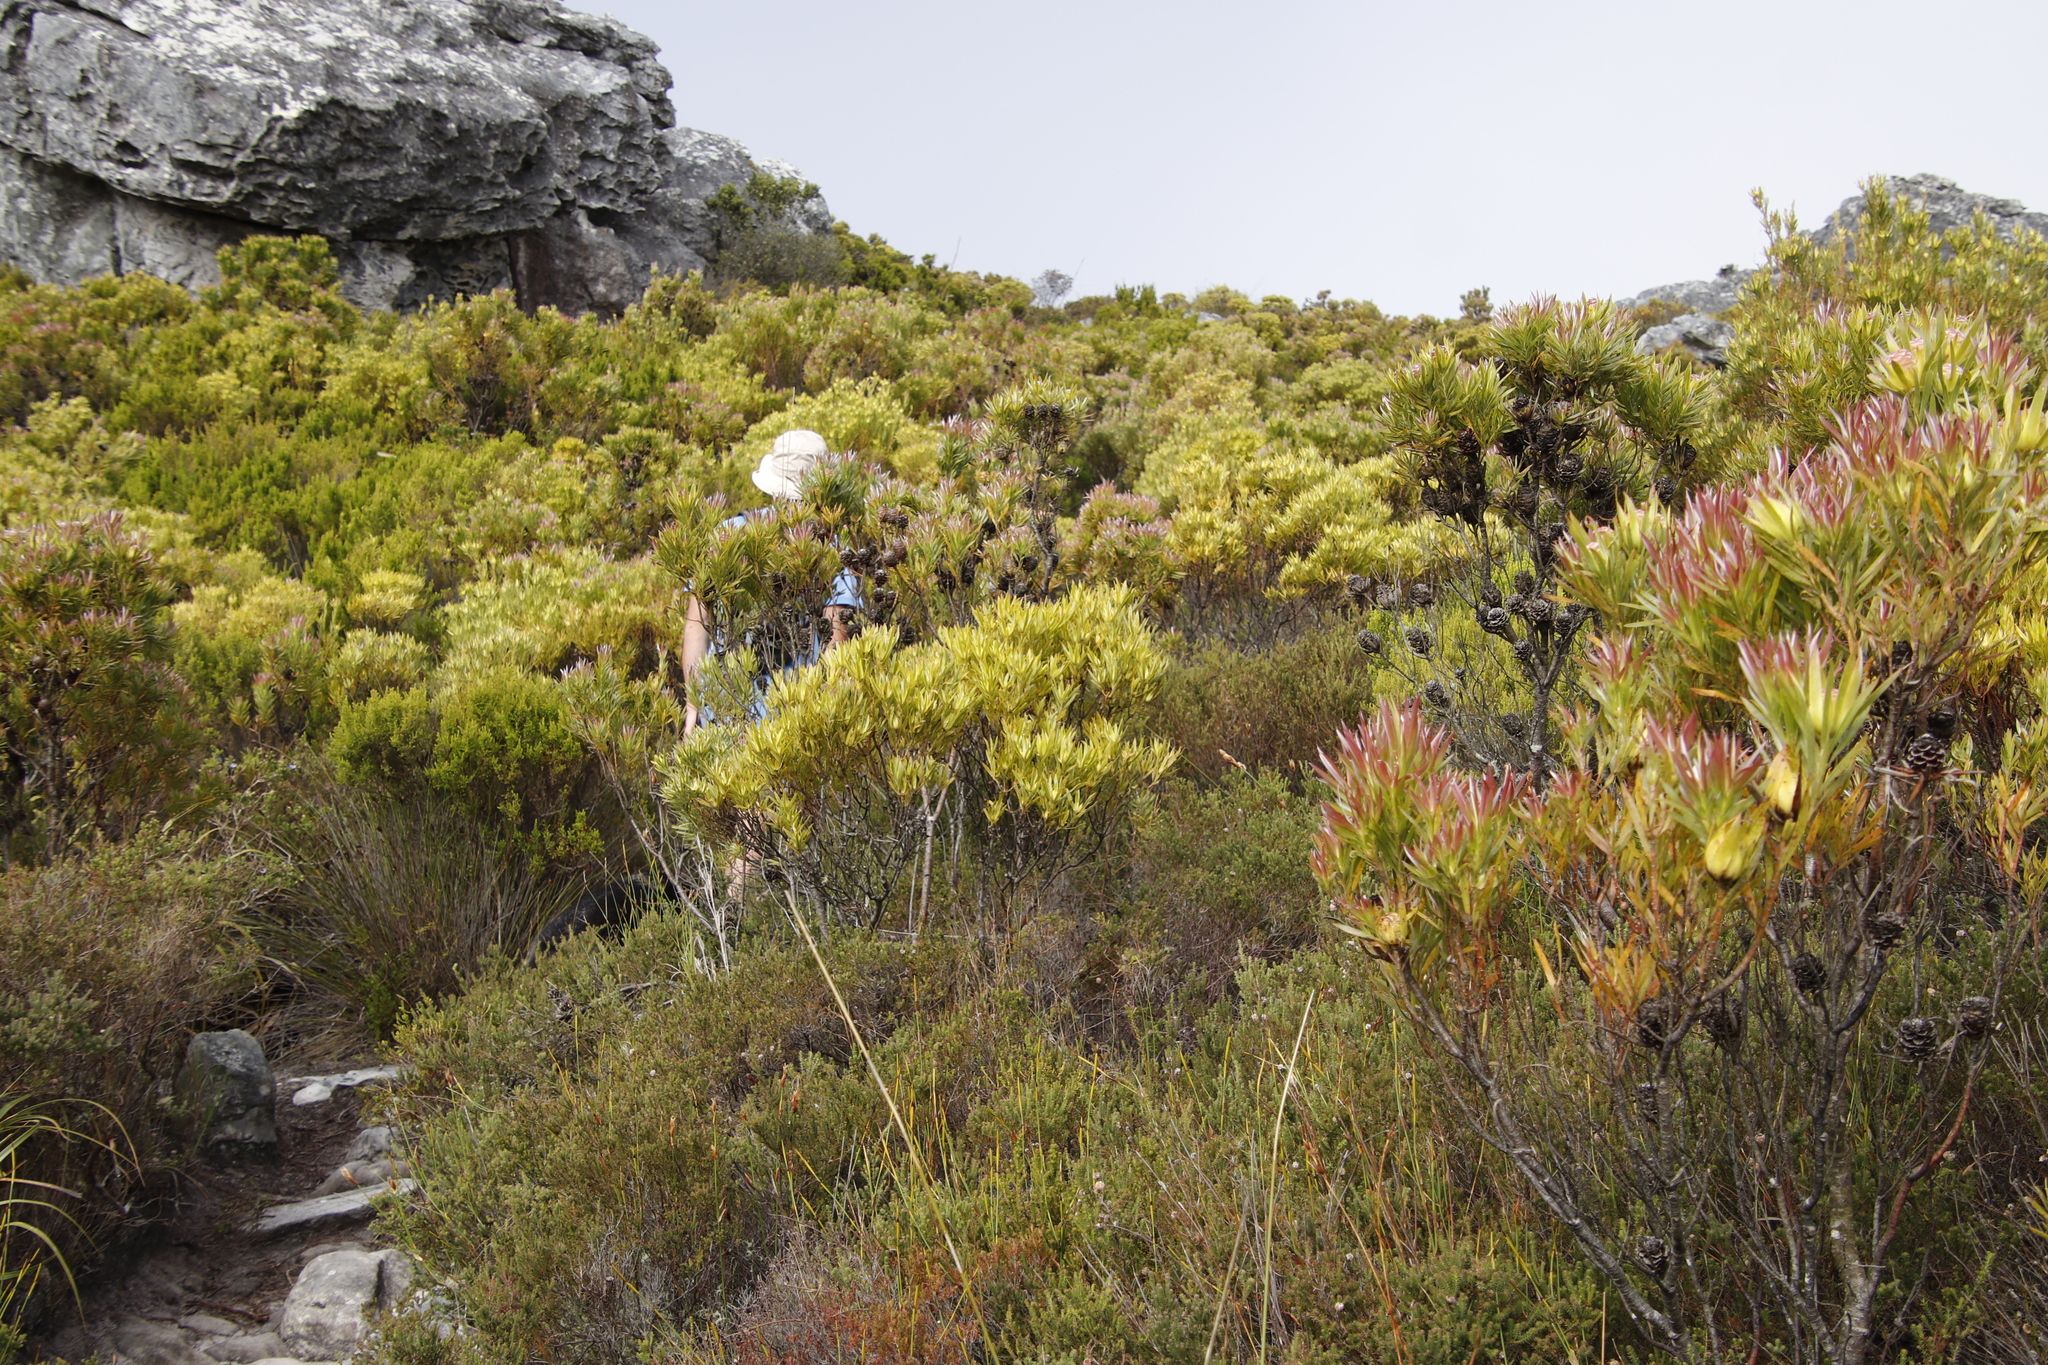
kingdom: Plantae
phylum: Tracheophyta
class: Magnoliopsida
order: Proteales
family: Proteaceae
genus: Leucadendron
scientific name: Leucadendron xanthoconus
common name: Sickle-leaf conebush
